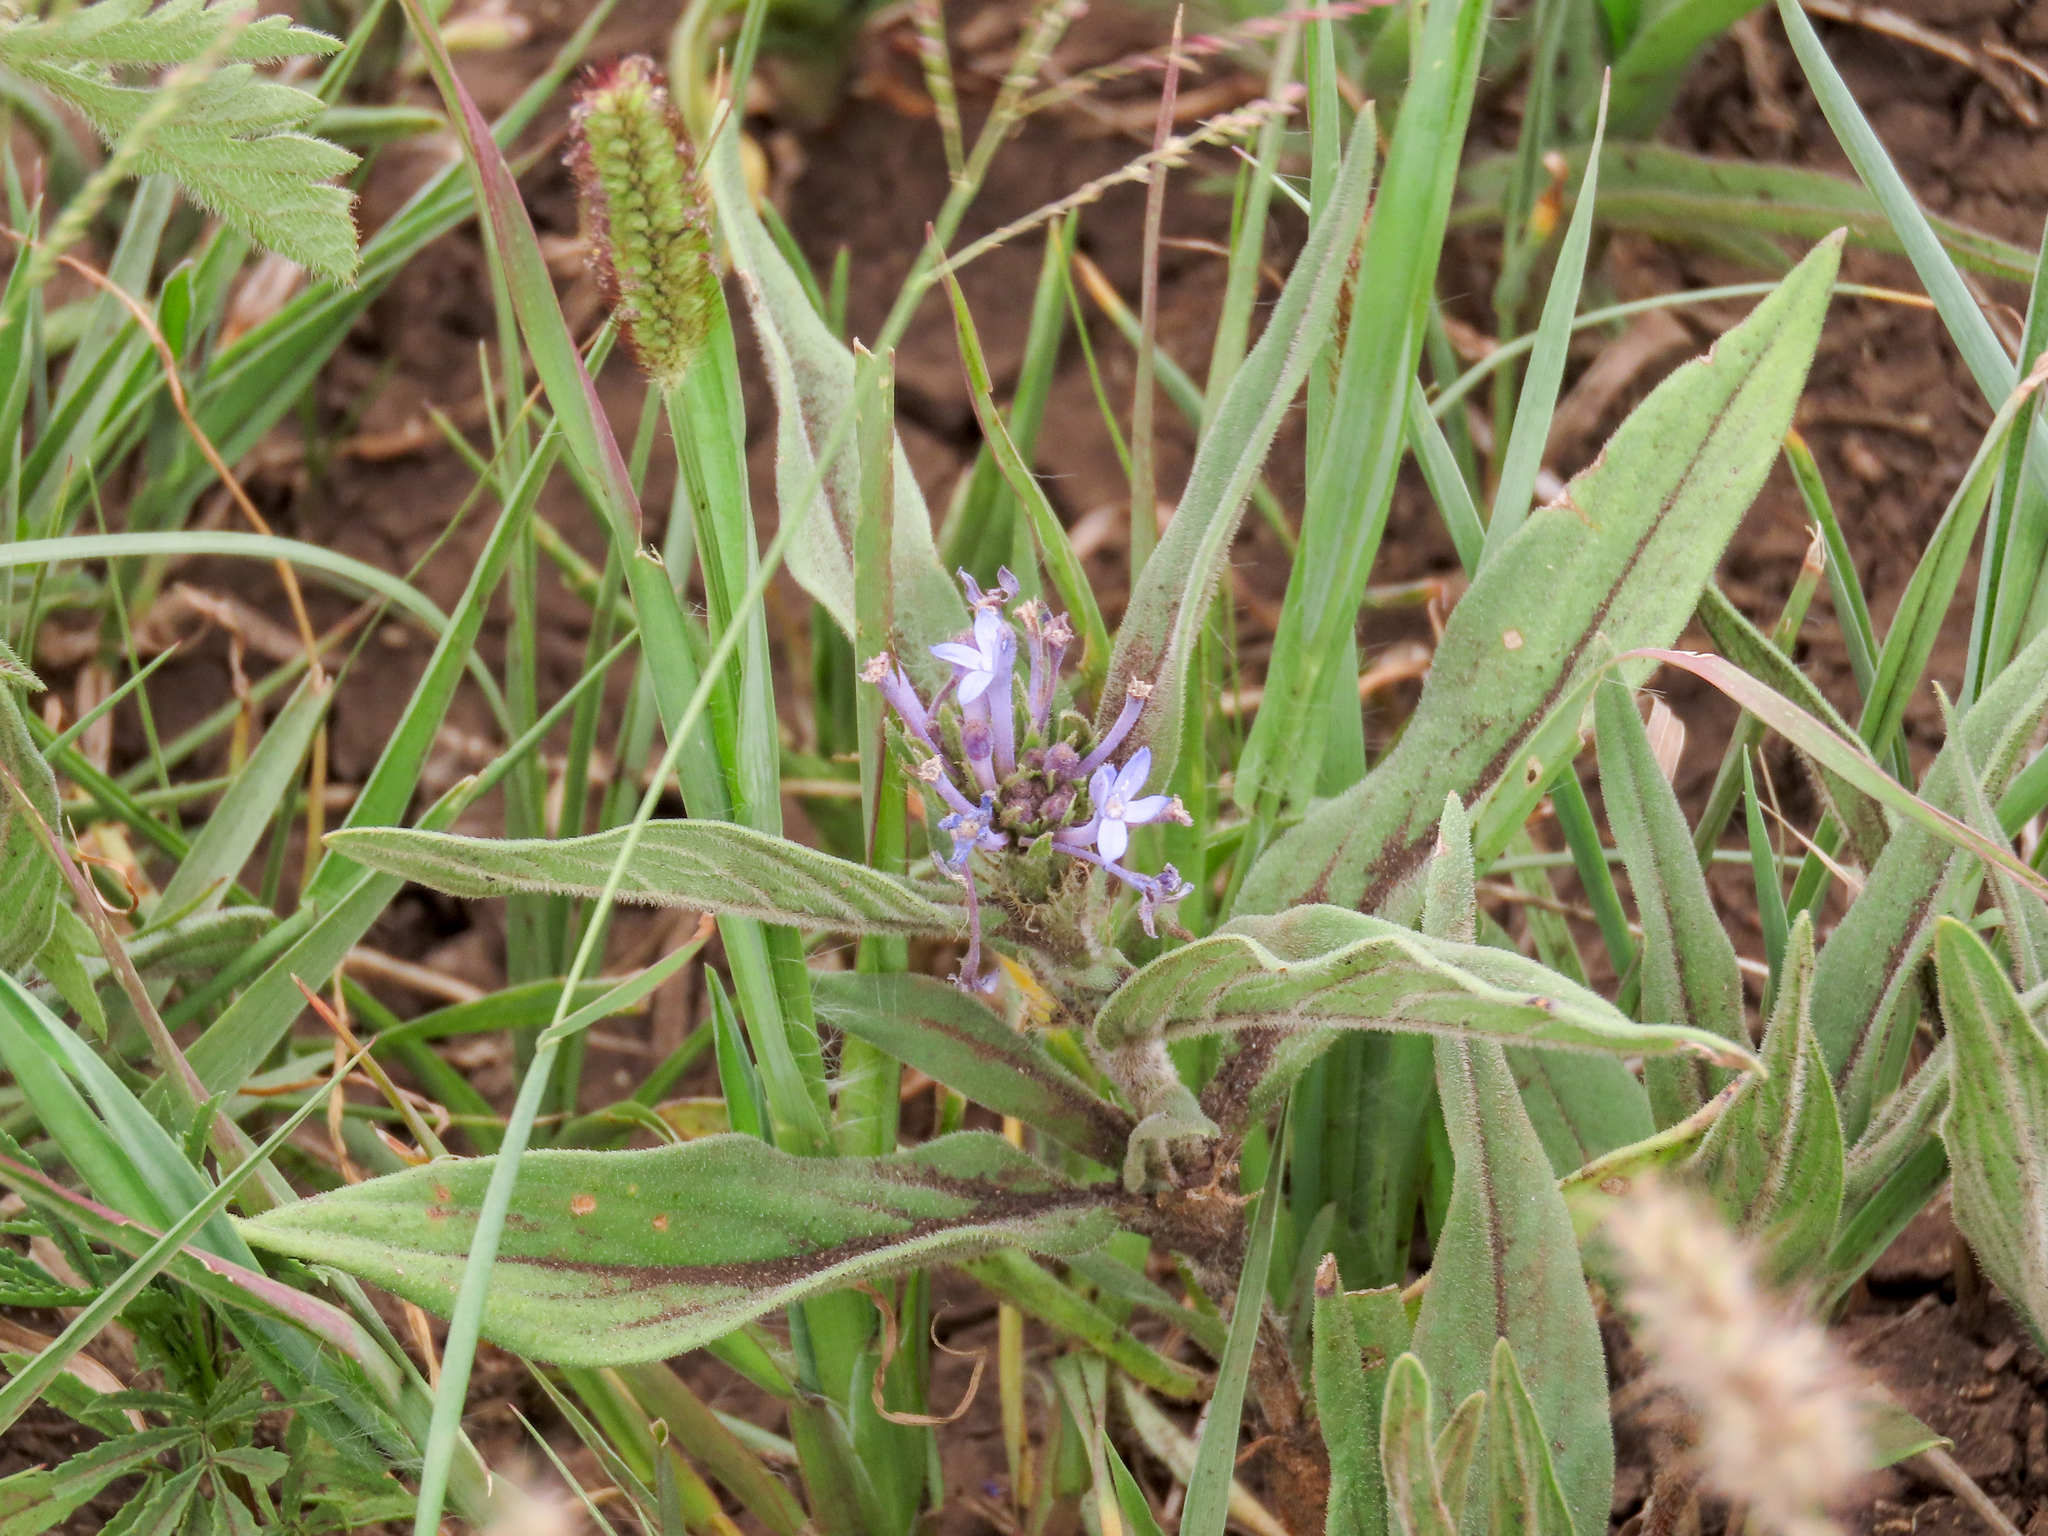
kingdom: Plantae
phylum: Tracheophyta
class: Magnoliopsida
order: Gentianales
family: Rubiaceae
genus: Pentanisia
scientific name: Pentanisia ouranogyne
